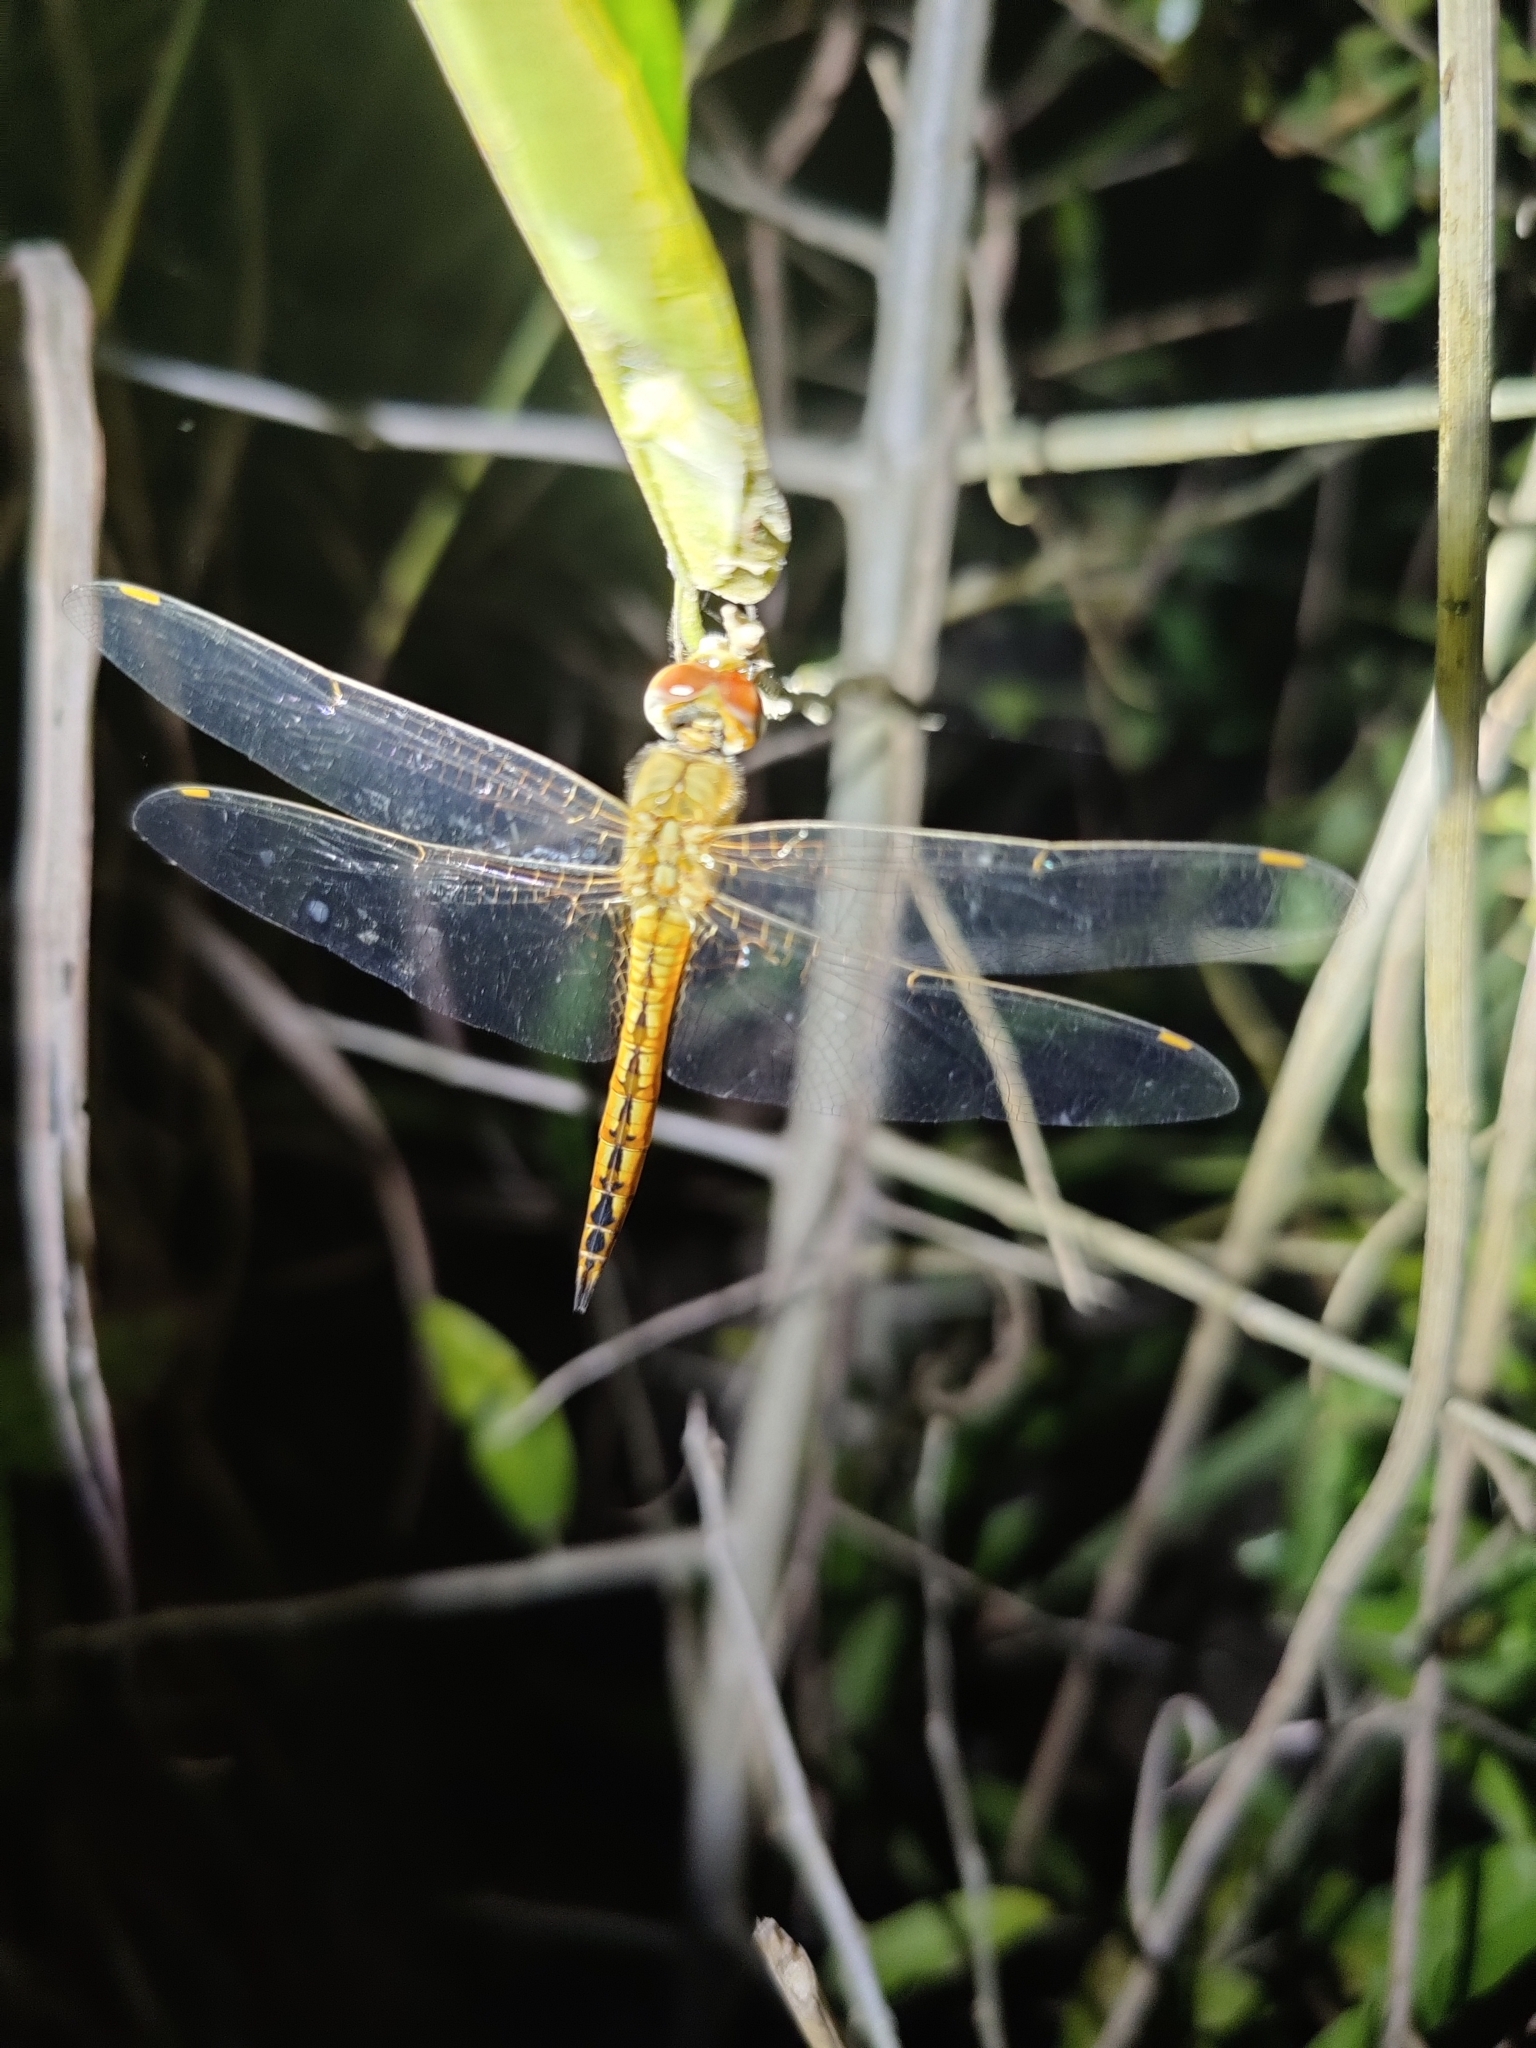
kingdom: Animalia
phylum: Arthropoda
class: Insecta
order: Odonata
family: Libellulidae
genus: Pantala
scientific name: Pantala flavescens
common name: Wandering glider
